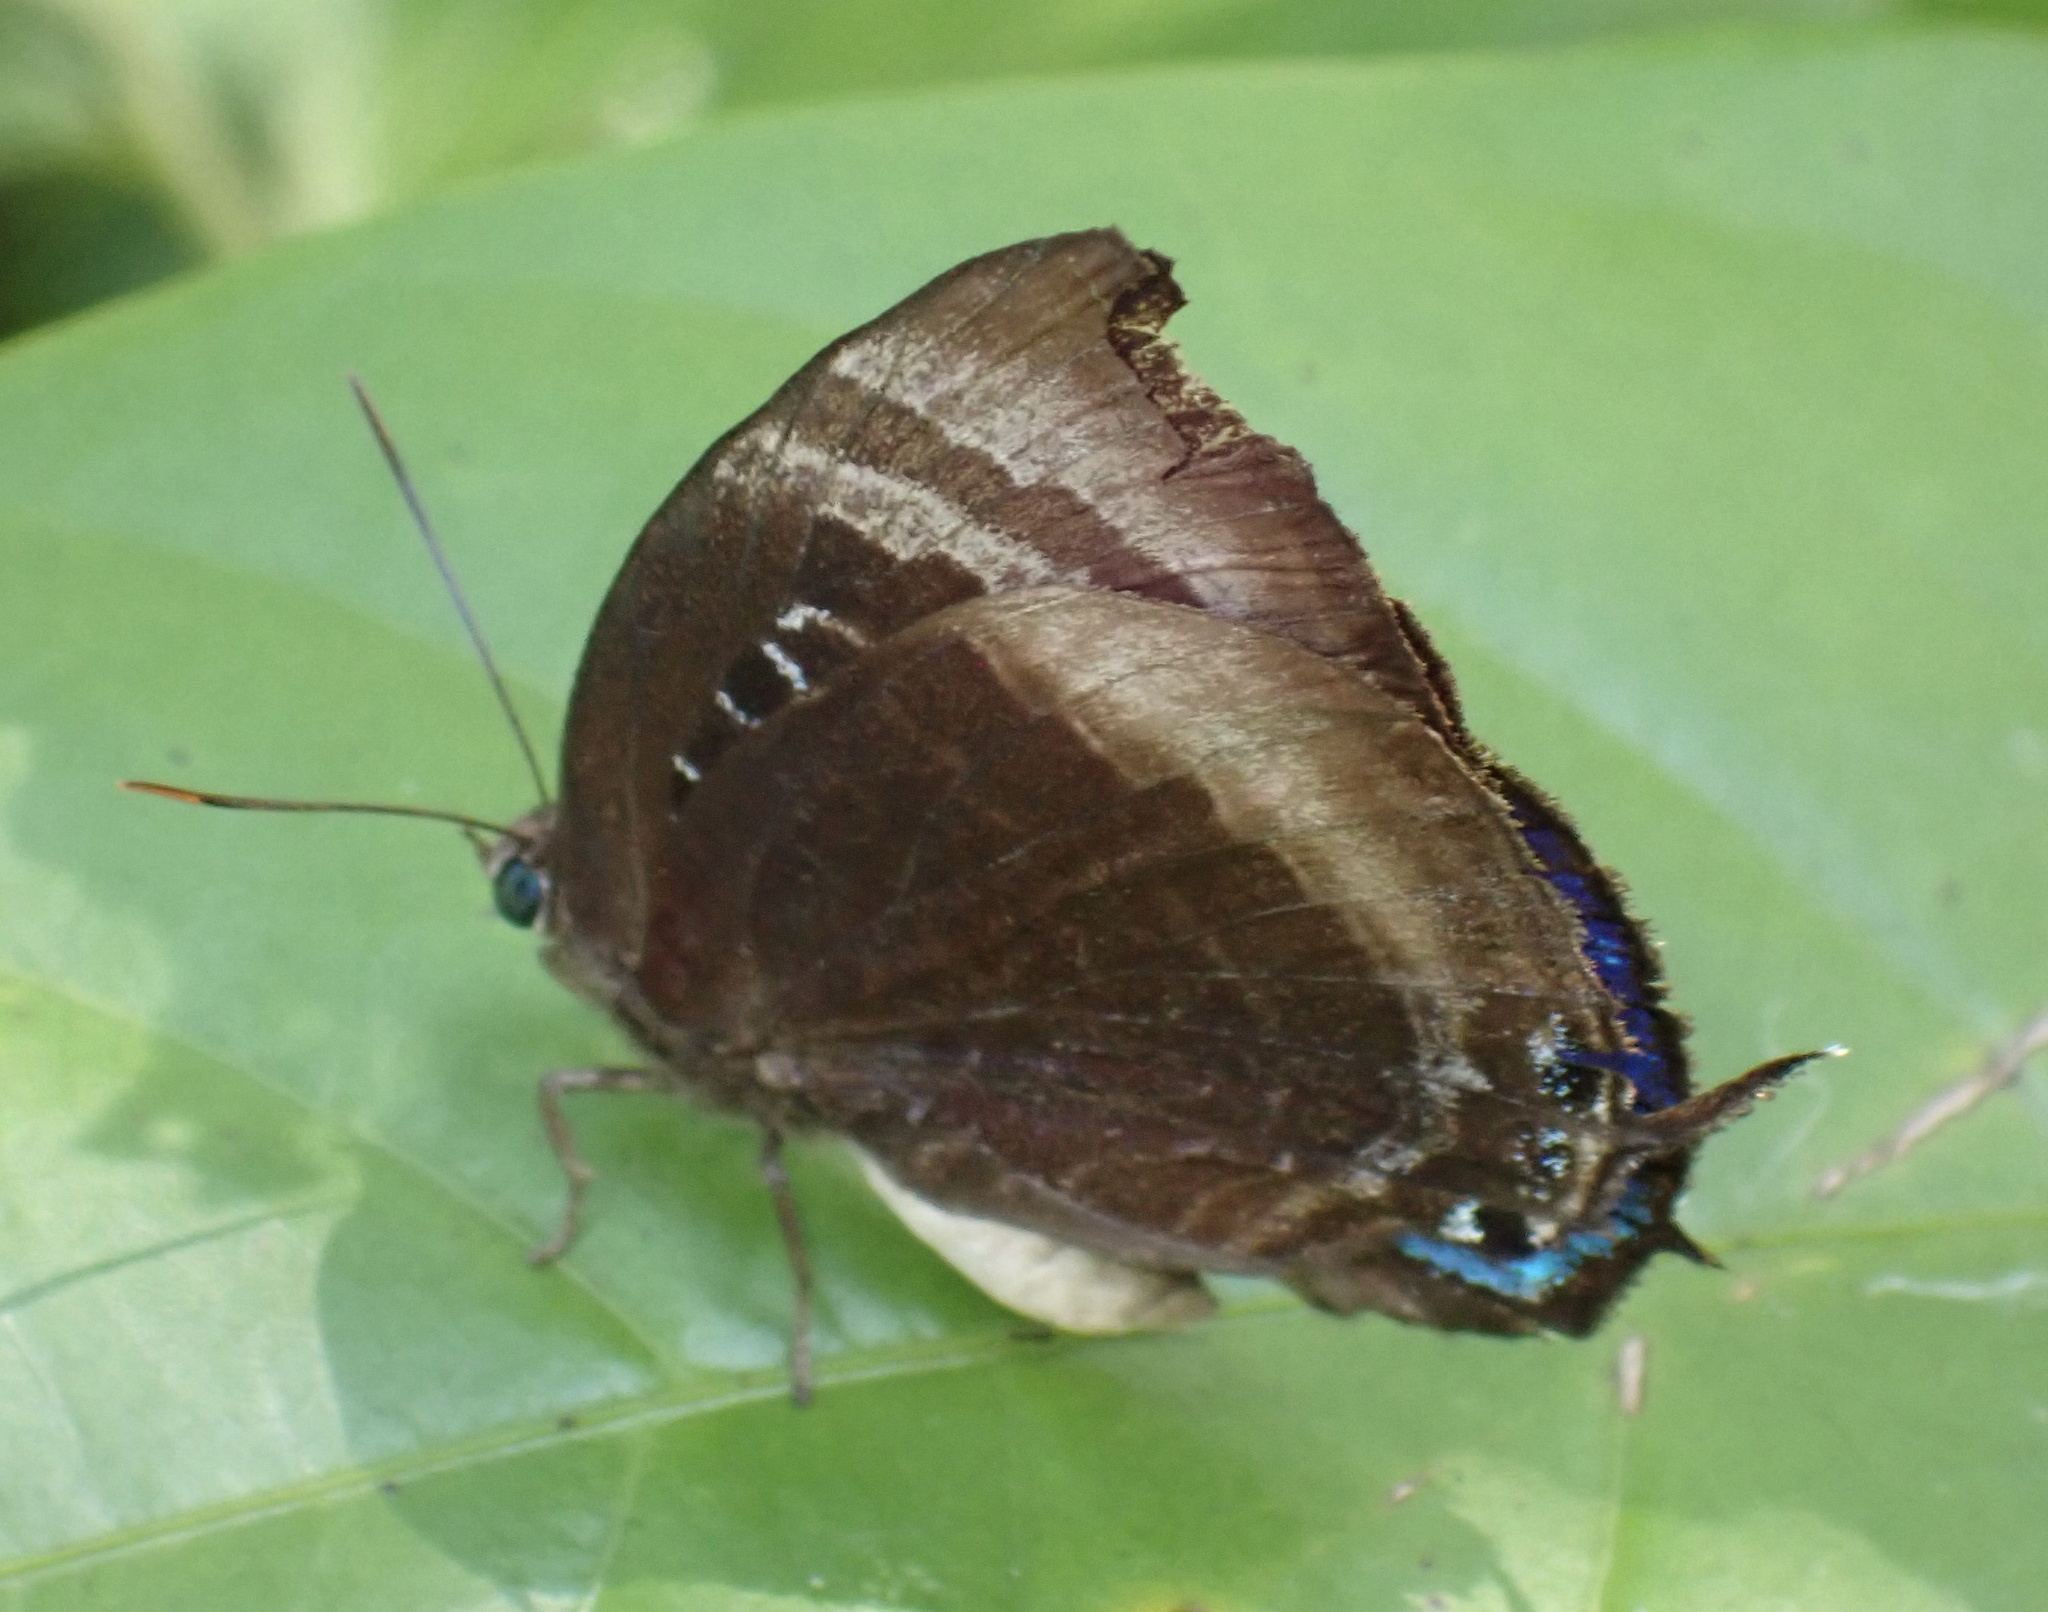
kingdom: Animalia
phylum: Arthropoda
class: Insecta
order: Lepidoptera
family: Lycaenidae
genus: Arhopala
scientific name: Arhopala aexone
